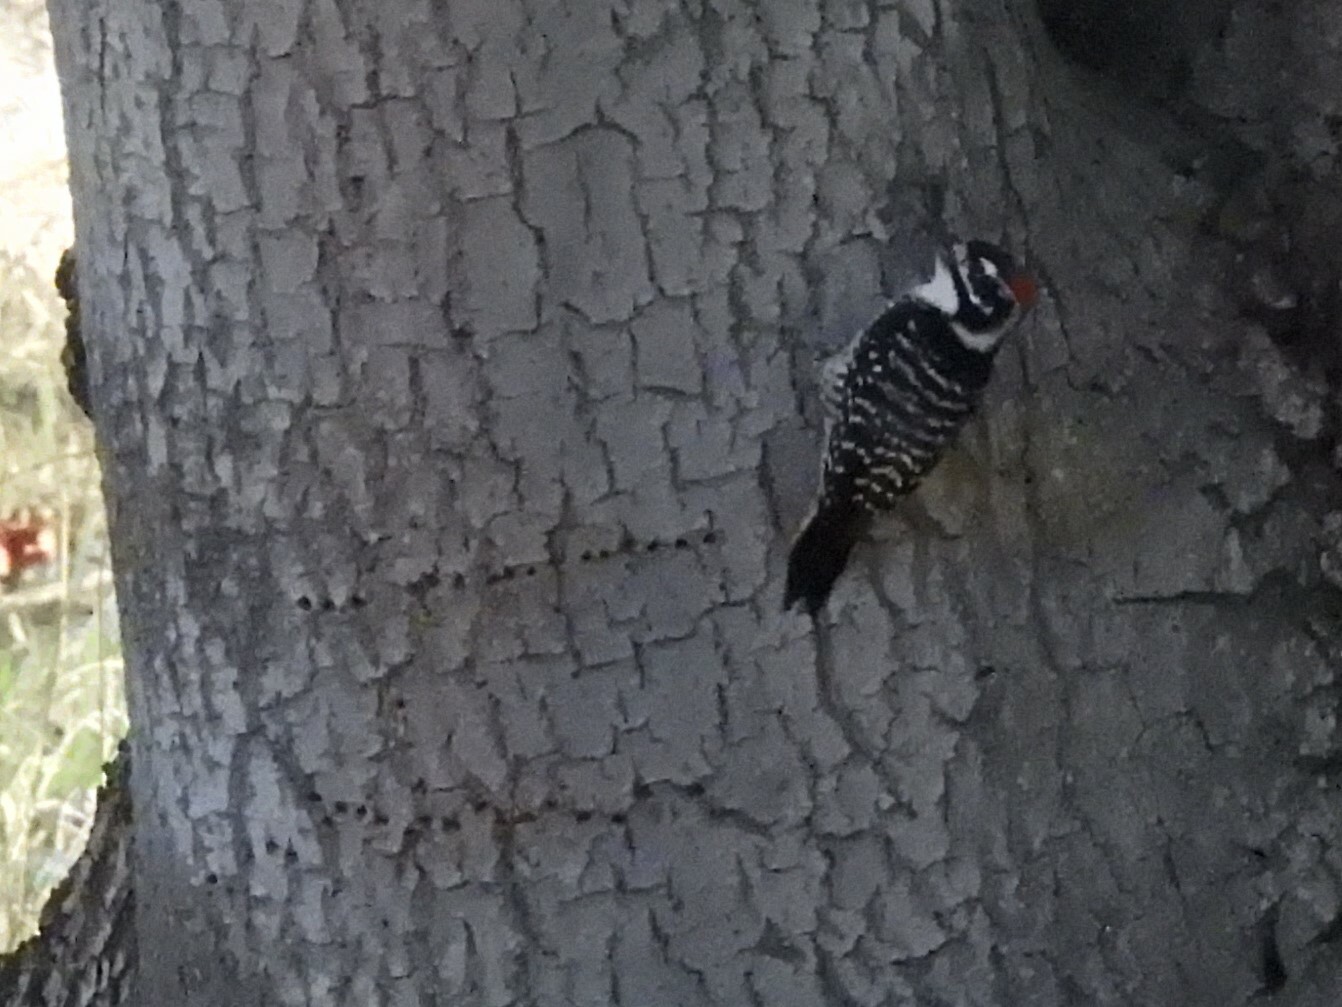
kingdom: Animalia
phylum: Chordata
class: Aves
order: Piciformes
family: Picidae
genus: Dryobates
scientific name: Dryobates nuttallii
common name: Nuttall's woodpecker
